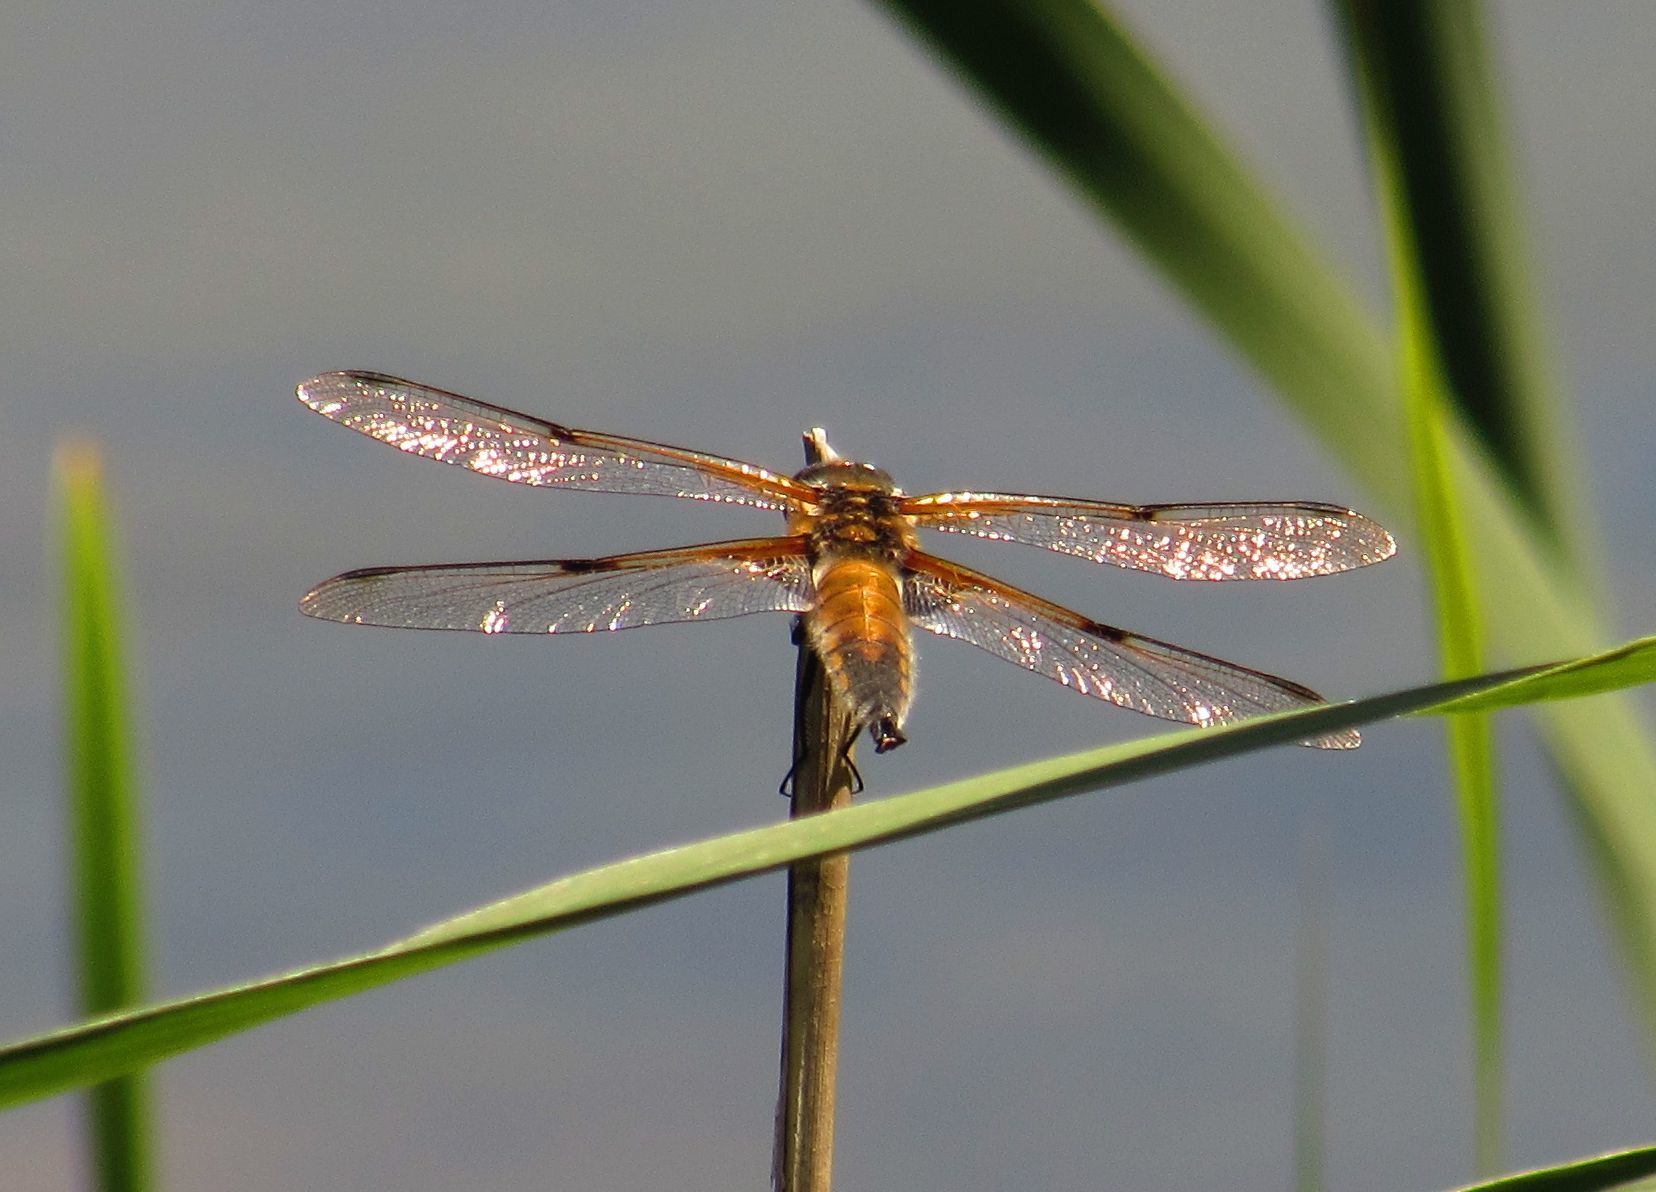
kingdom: Animalia
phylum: Arthropoda
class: Insecta
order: Odonata
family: Libellulidae
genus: Libellula
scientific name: Libellula quadrimaculata
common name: Four-spotted chaser
